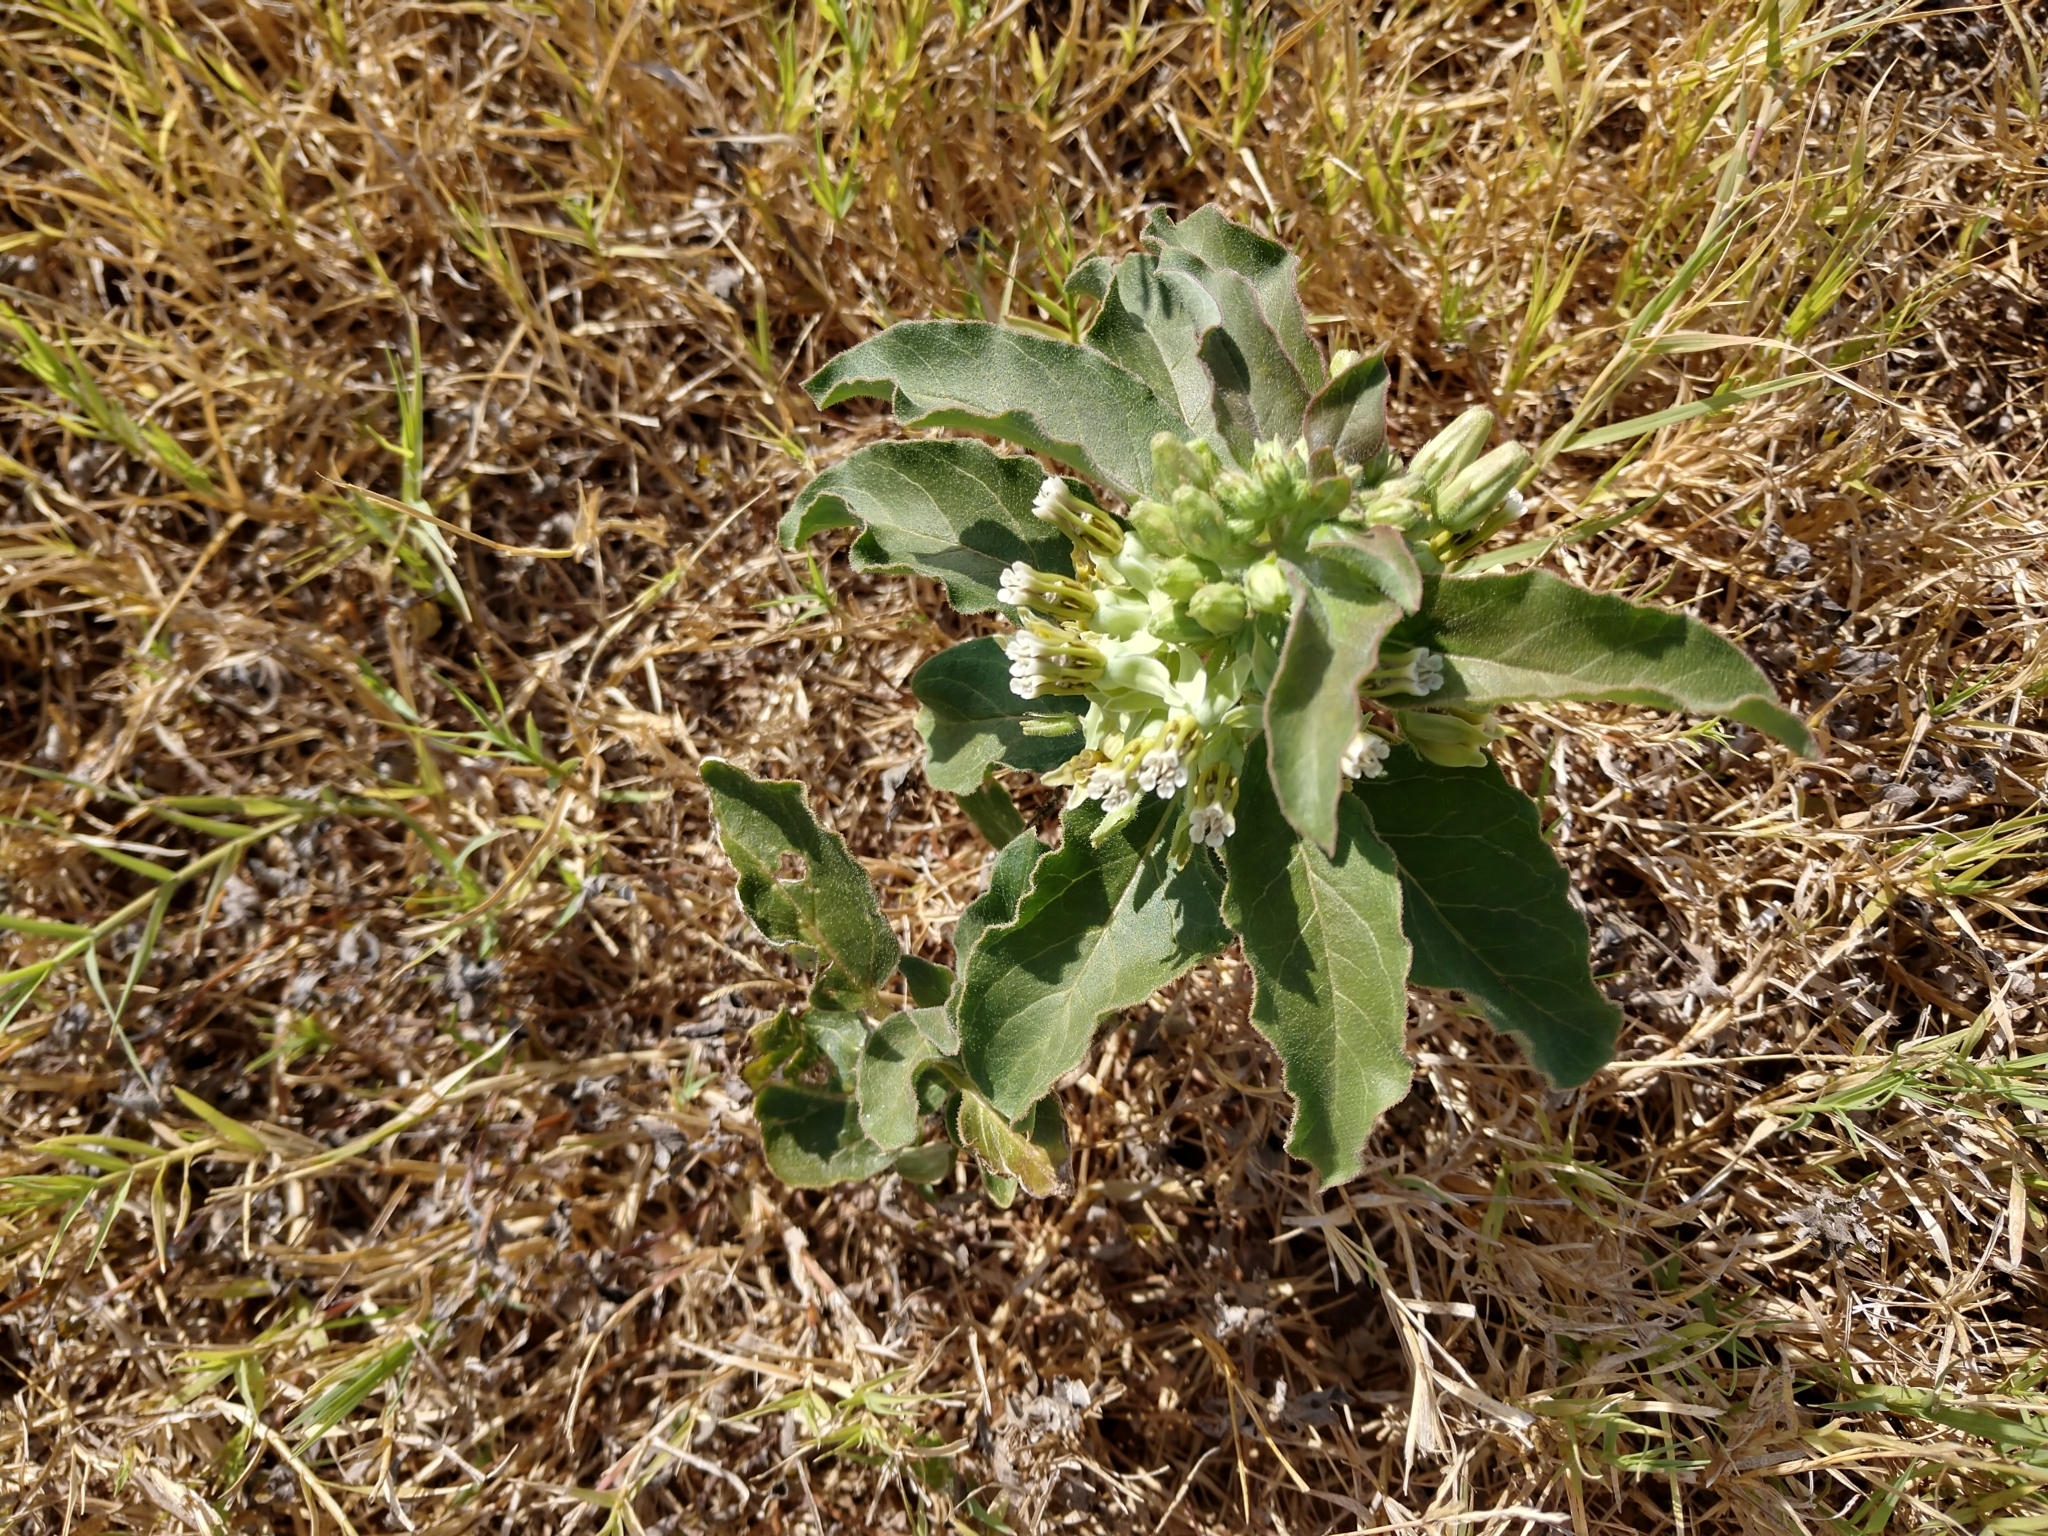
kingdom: Plantae
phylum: Tracheophyta
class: Magnoliopsida
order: Gentianales
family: Apocynaceae
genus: Asclepias
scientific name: Asclepias oenotheroides
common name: Zizotes milkweed
